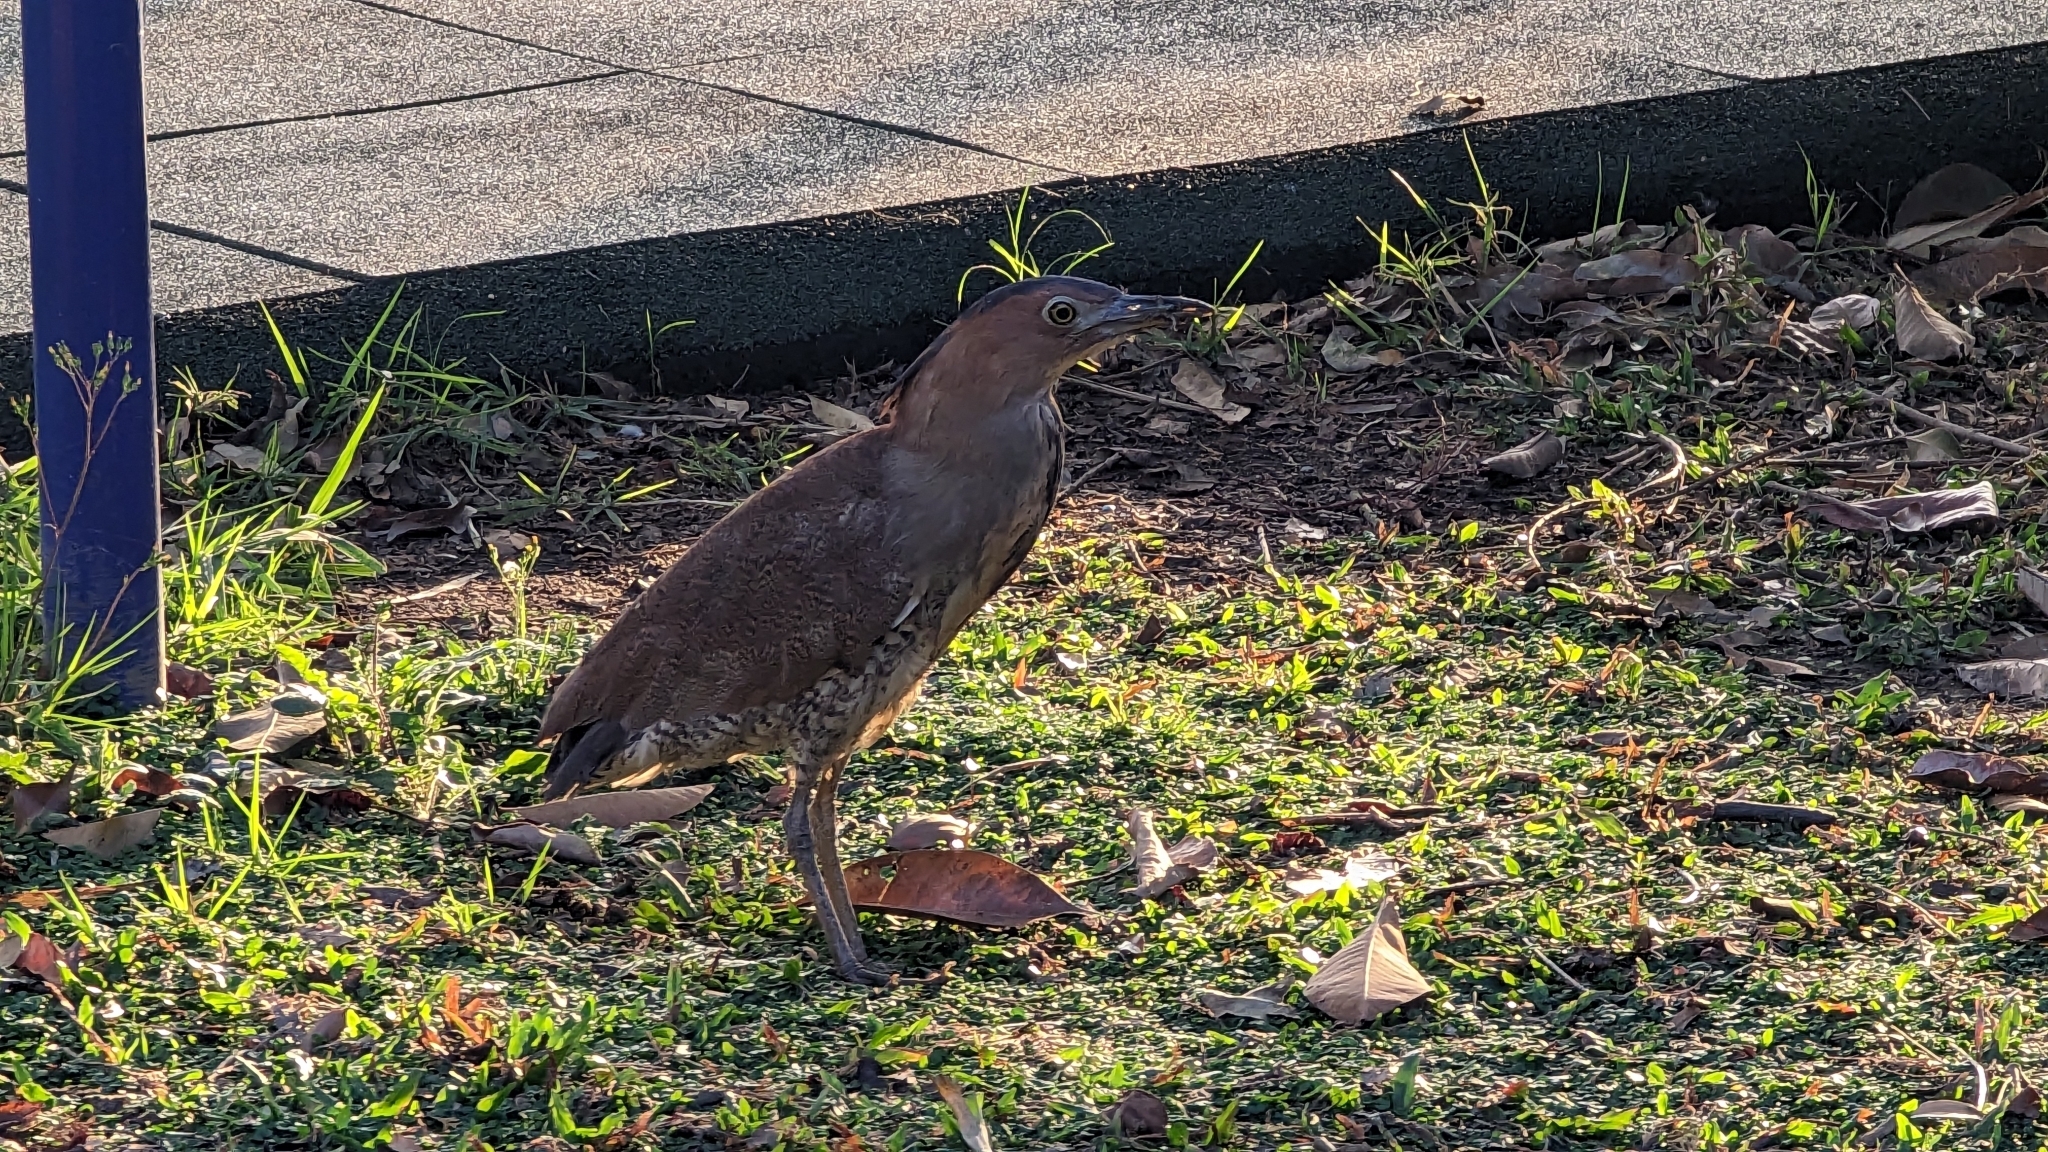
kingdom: Animalia
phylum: Chordata
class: Aves
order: Pelecaniformes
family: Ardeidae
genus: Gorsachius
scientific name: Gorsachius melanolophus
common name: Malayan night heron
